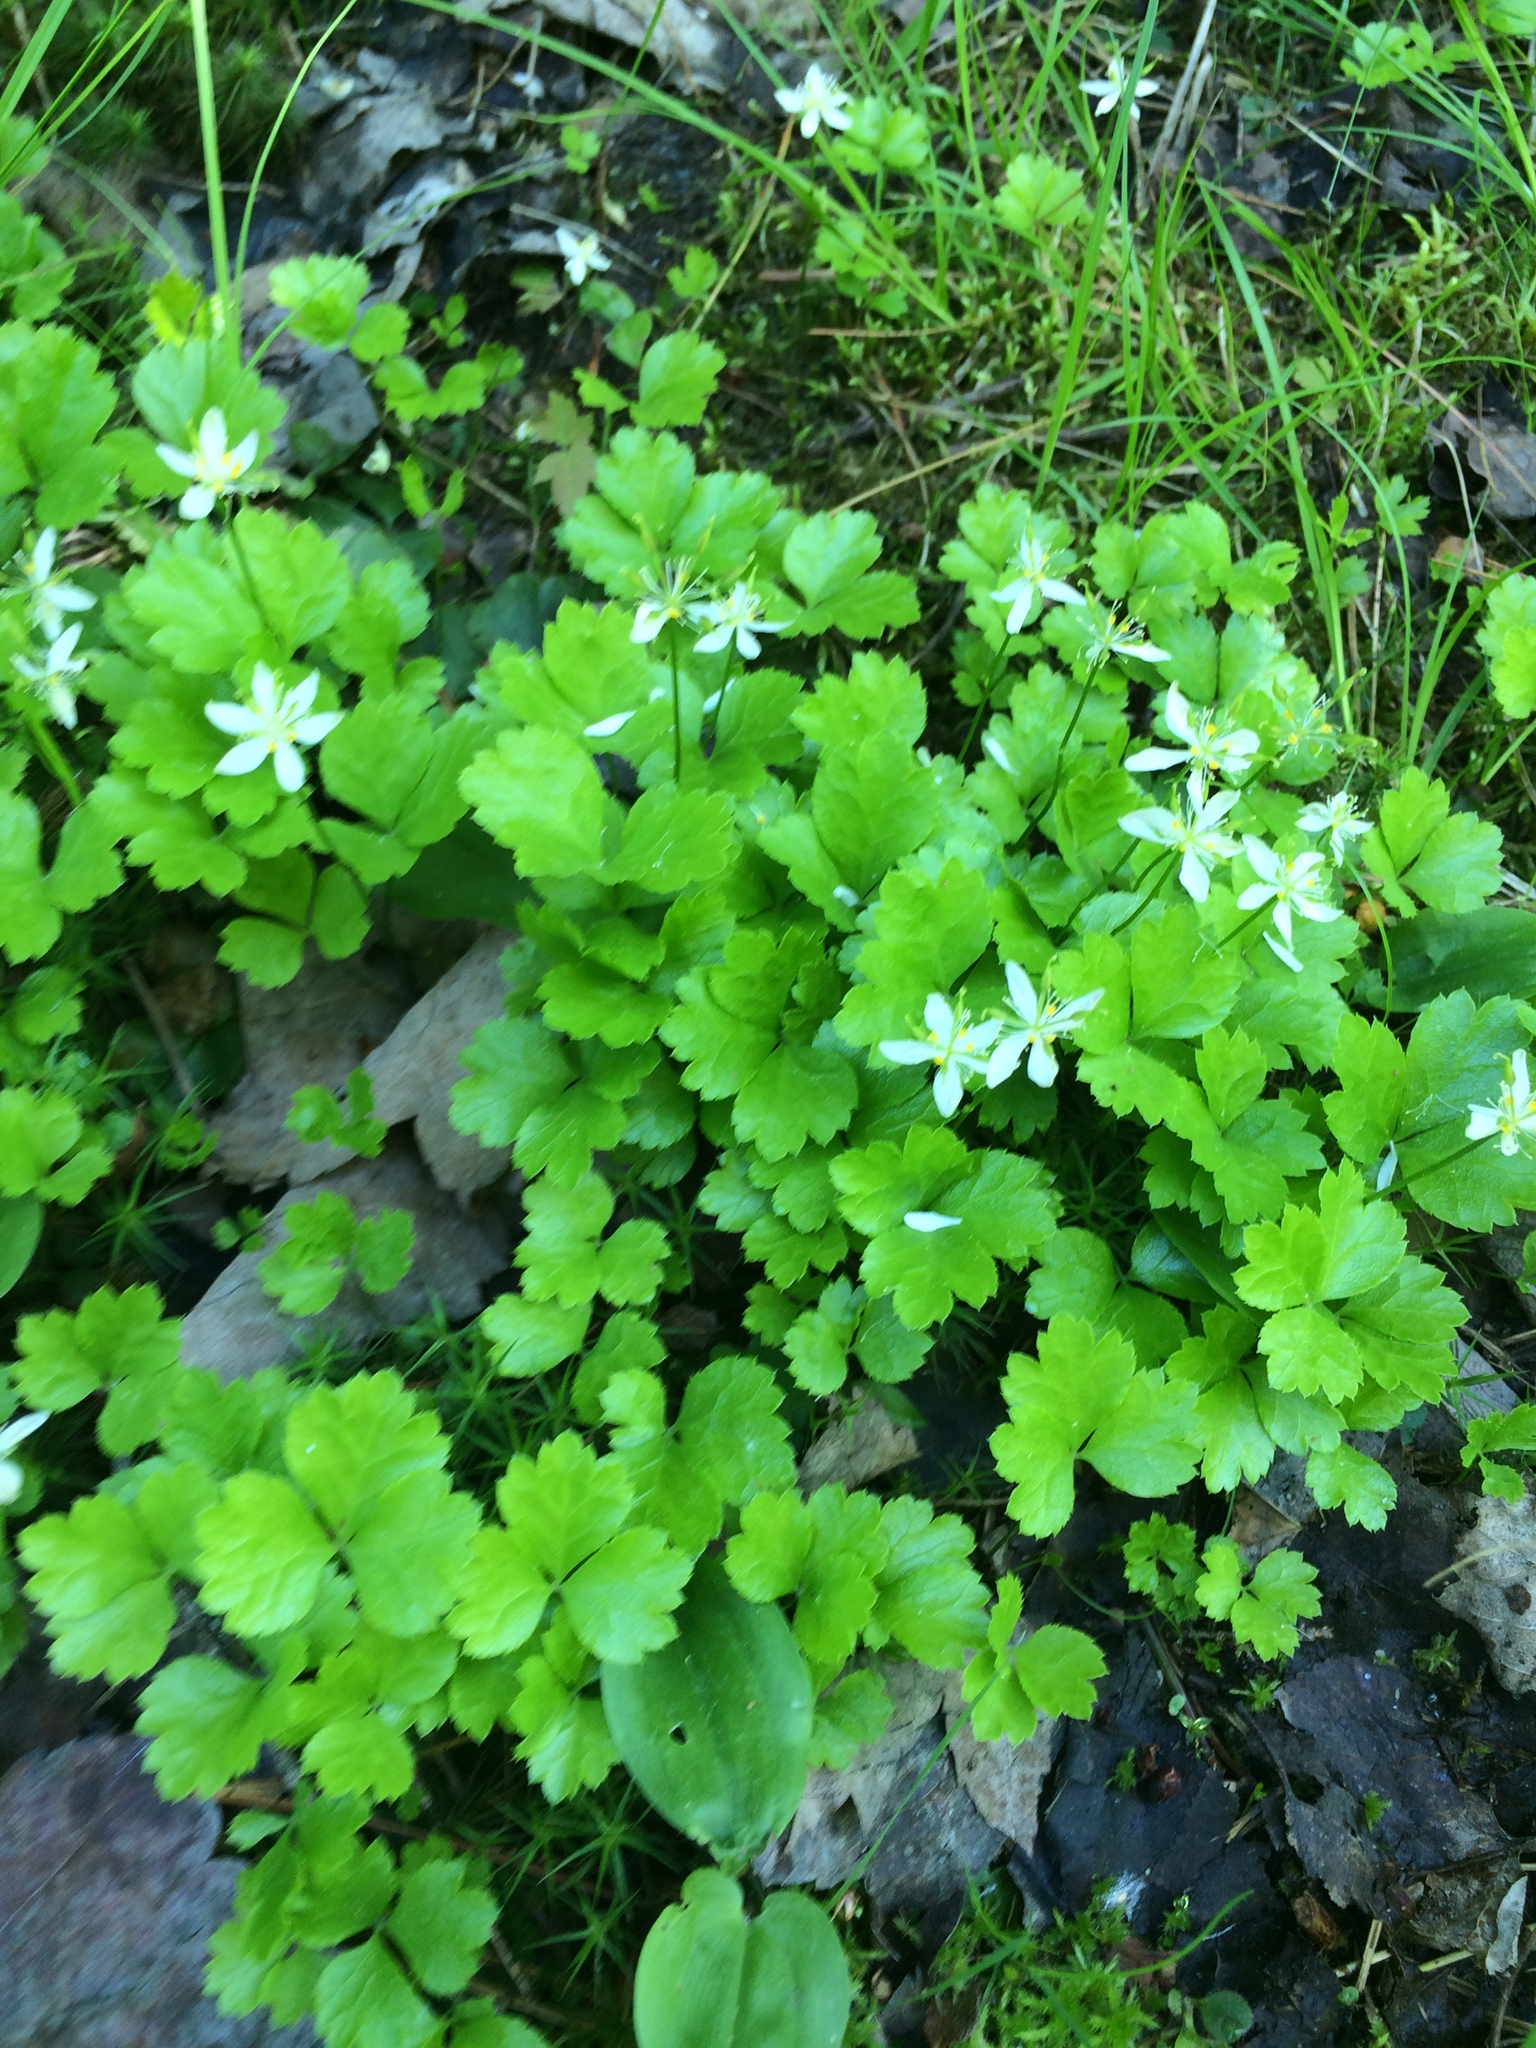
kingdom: Plantae
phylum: Tracheophyta
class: Magnoliopsida
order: Ranunculales
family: Ranunculaceae
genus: Coptis
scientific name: Coptis trifolia
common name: Canker-root
